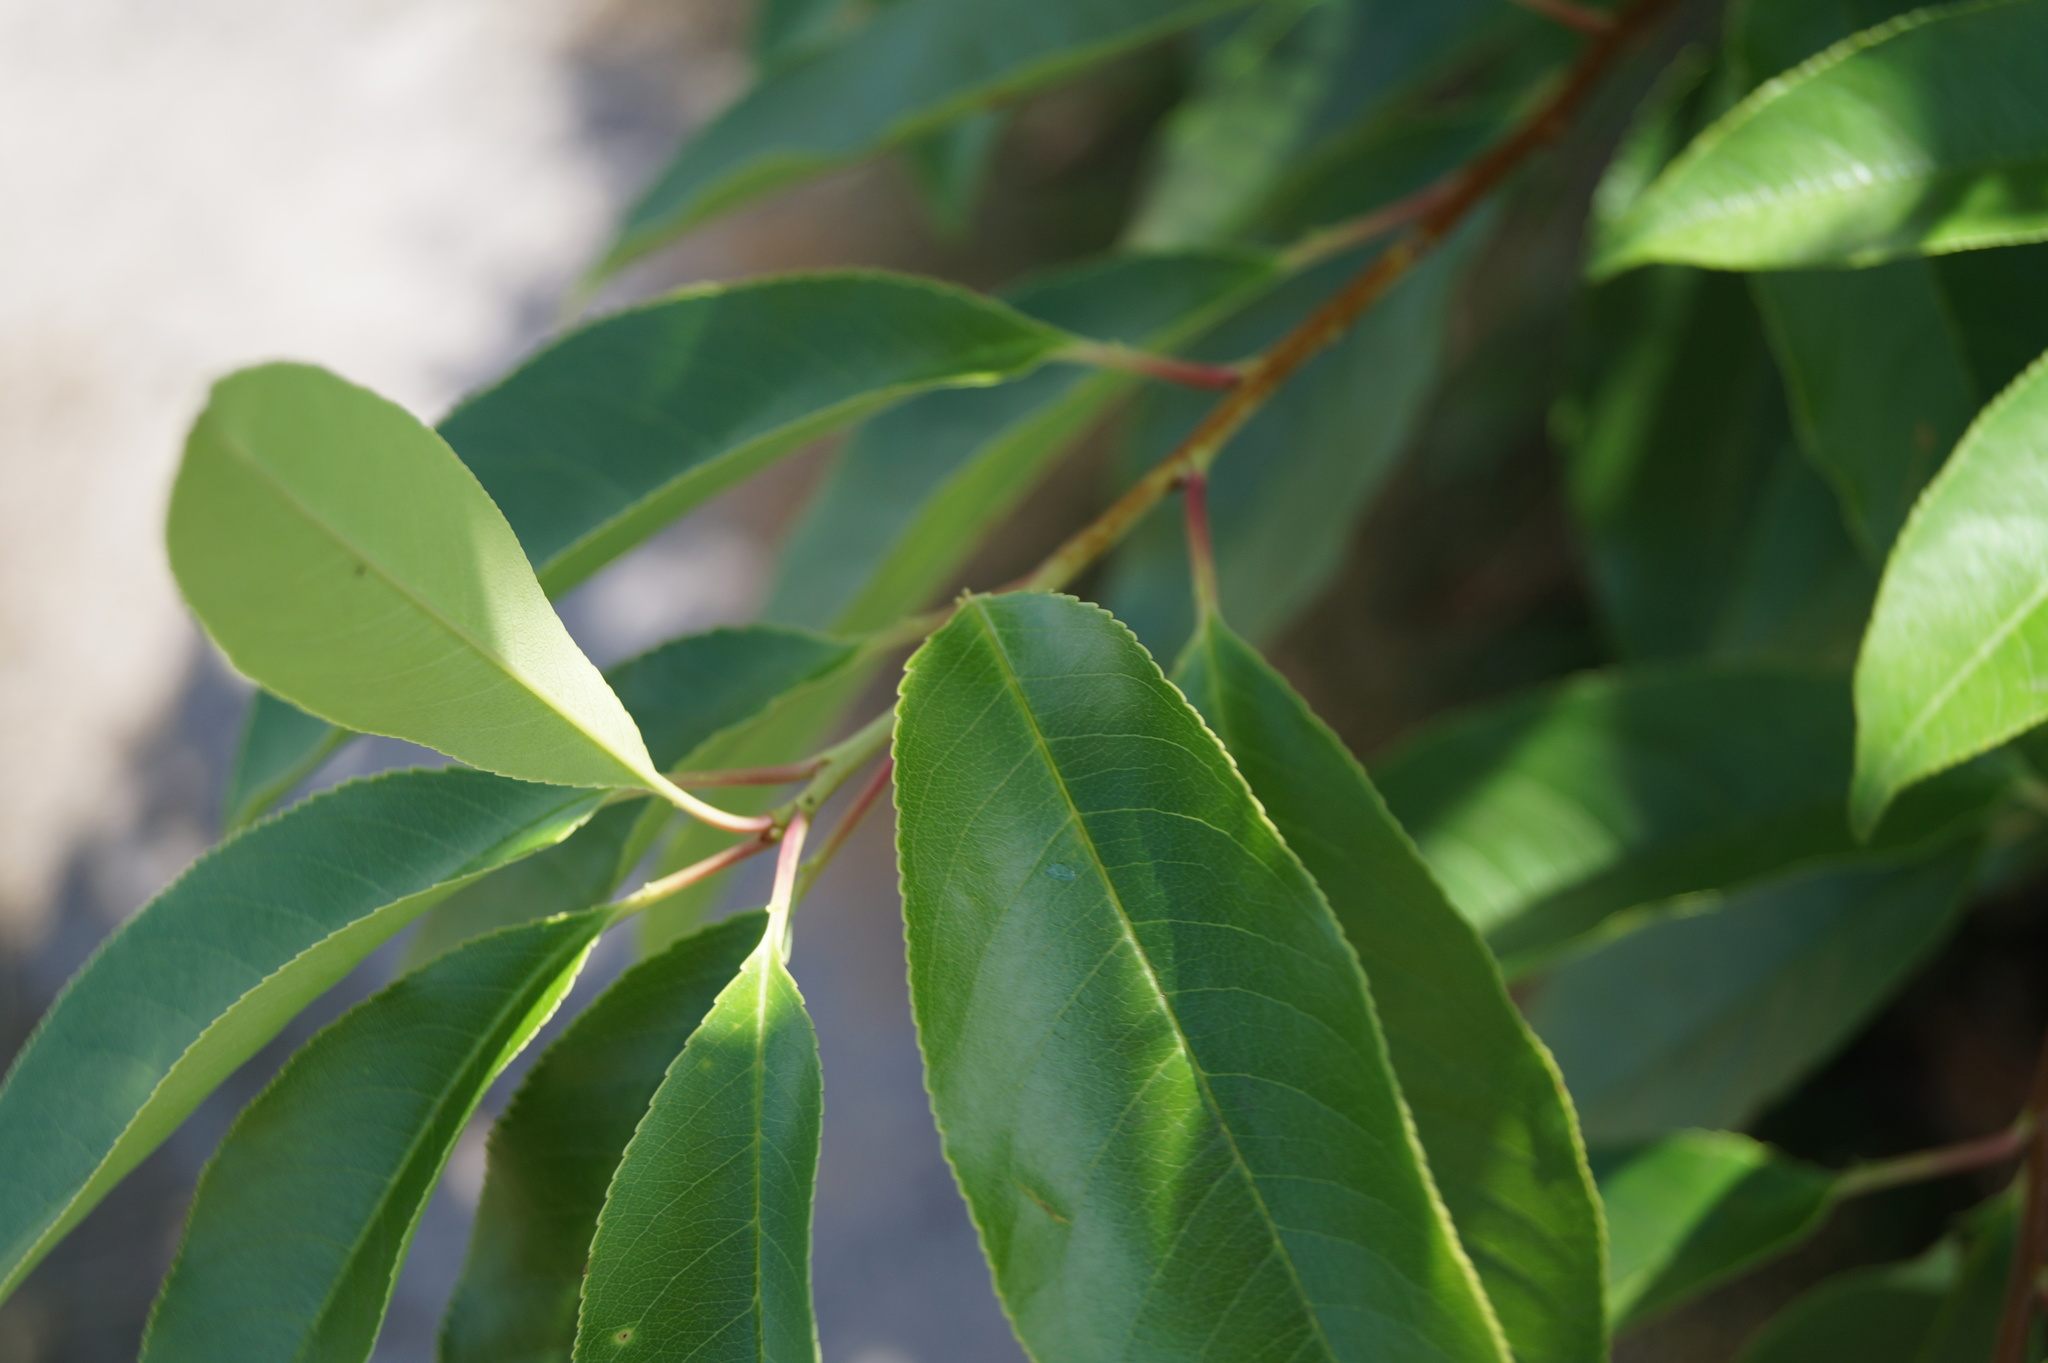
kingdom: Plantae
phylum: Tracheophyta
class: Magnoliopsida
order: Rosales
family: Rosaceae
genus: Prunus
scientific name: Prunus laurocerasus
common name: Cherry laurel
